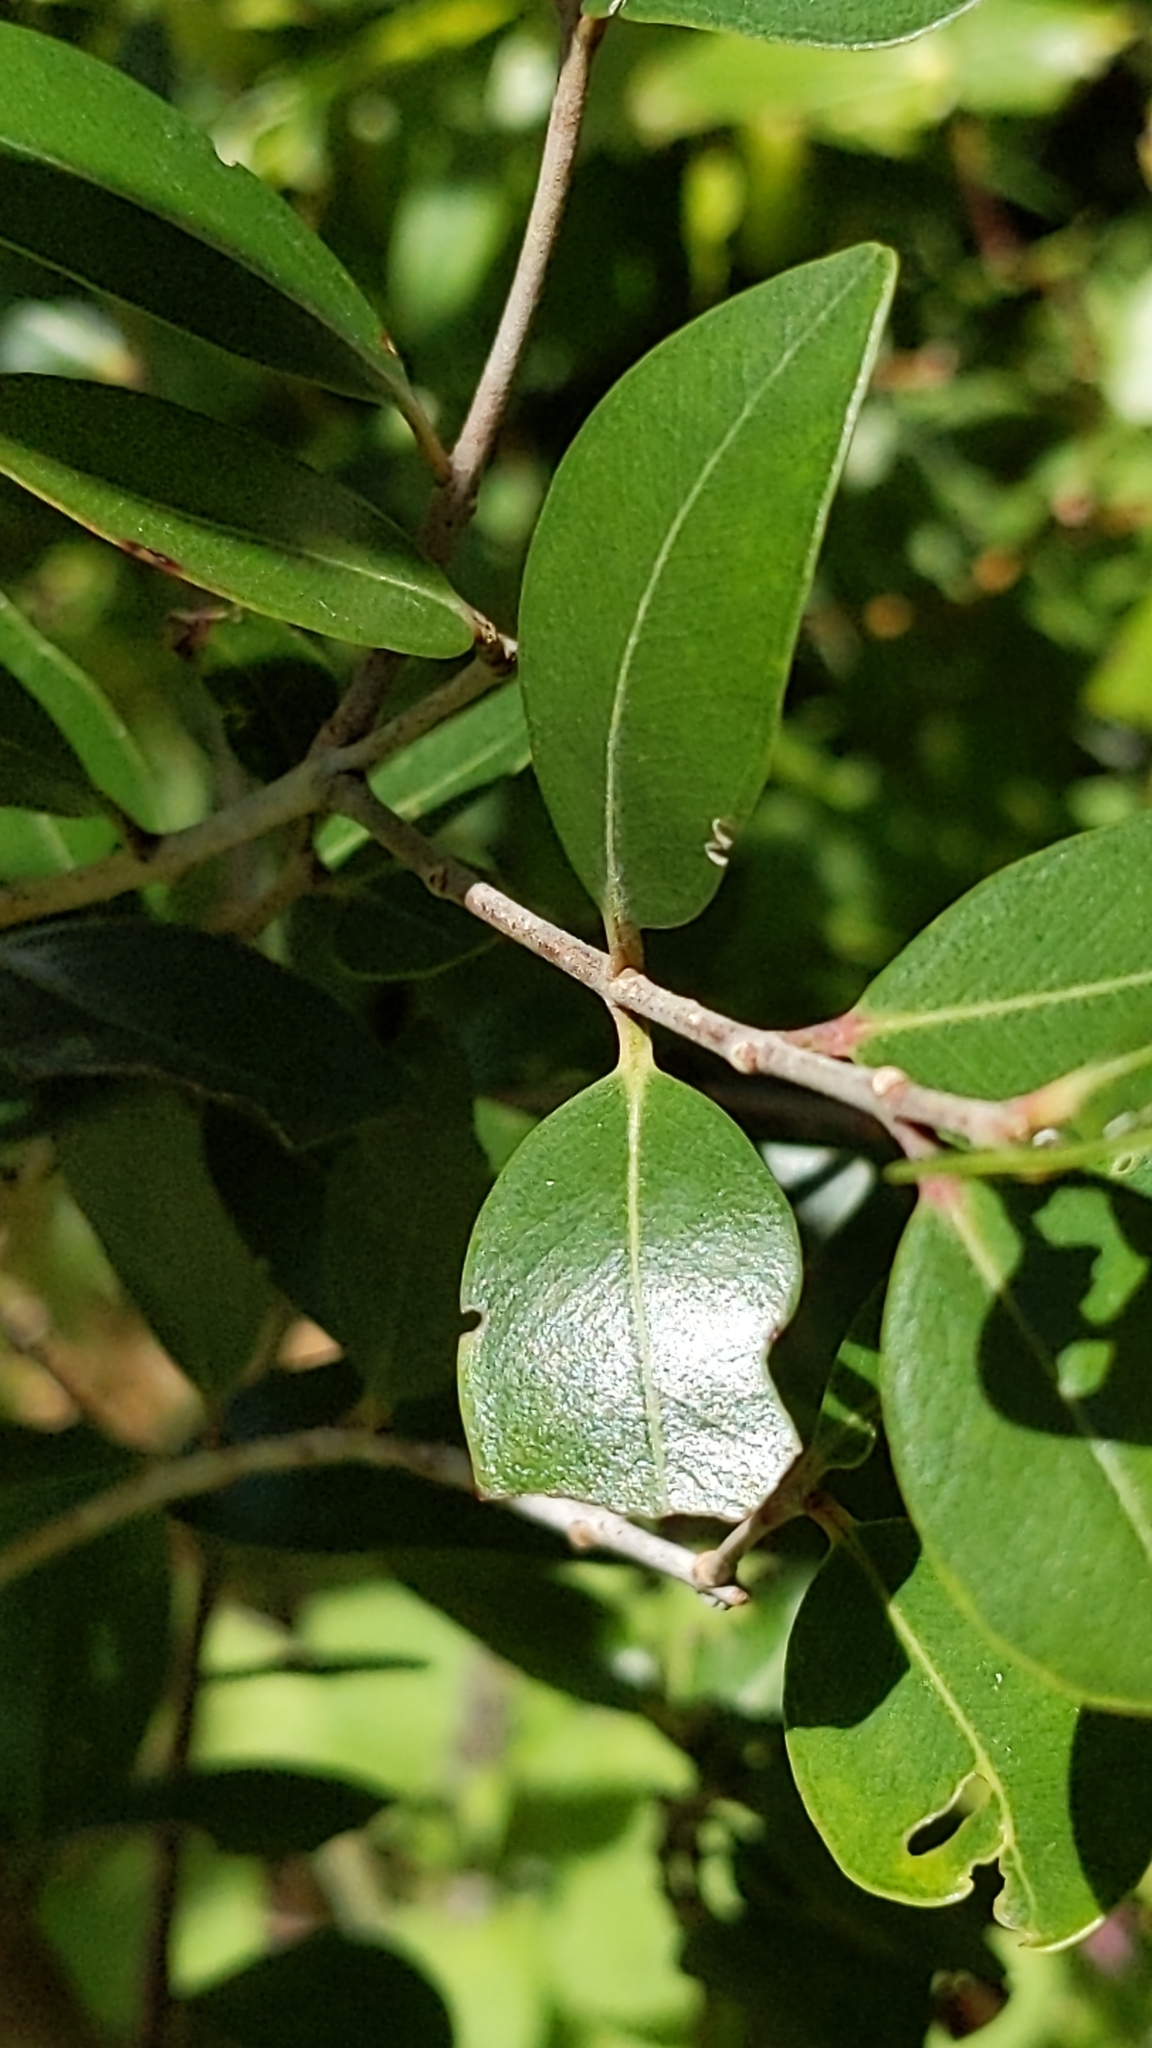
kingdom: Plantae
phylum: Tracheophyta
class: Magnoliopsida
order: Myrtales
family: Myrtaceae
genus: Metrosideros
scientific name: Metrosideros robusta
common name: Northern rata
